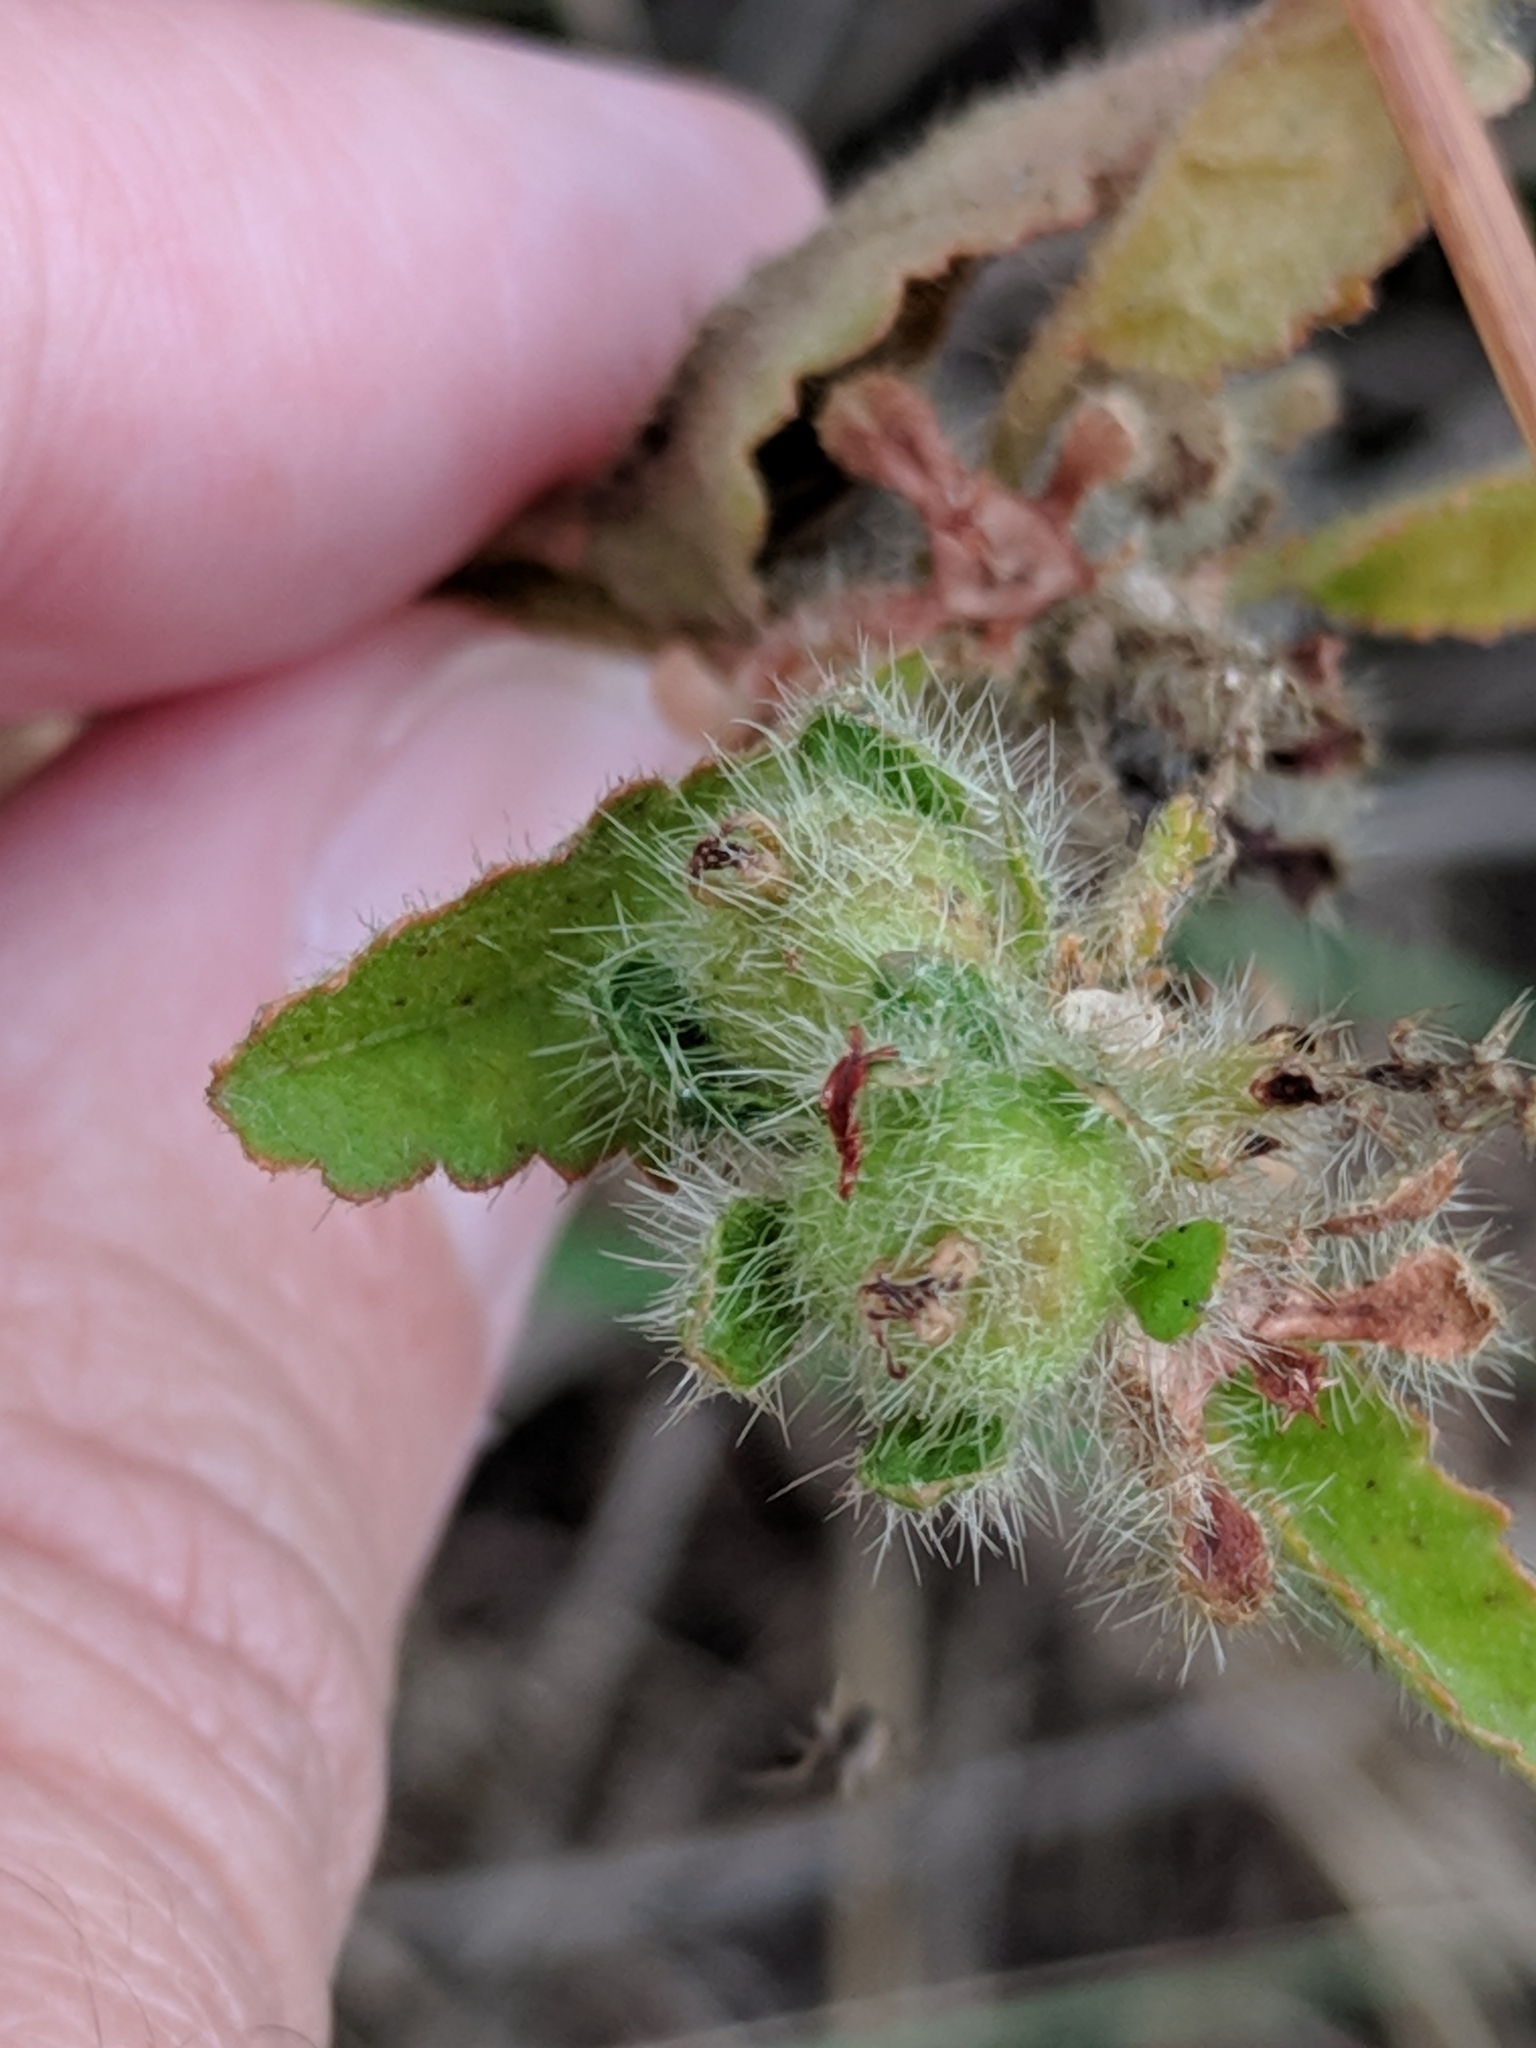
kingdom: Plantae
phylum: Tracheophyta
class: Magnoliopsida
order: Malpighiales
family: Euphorbiaceae
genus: Croton
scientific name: Croton glandulosus
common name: Tropic croton
